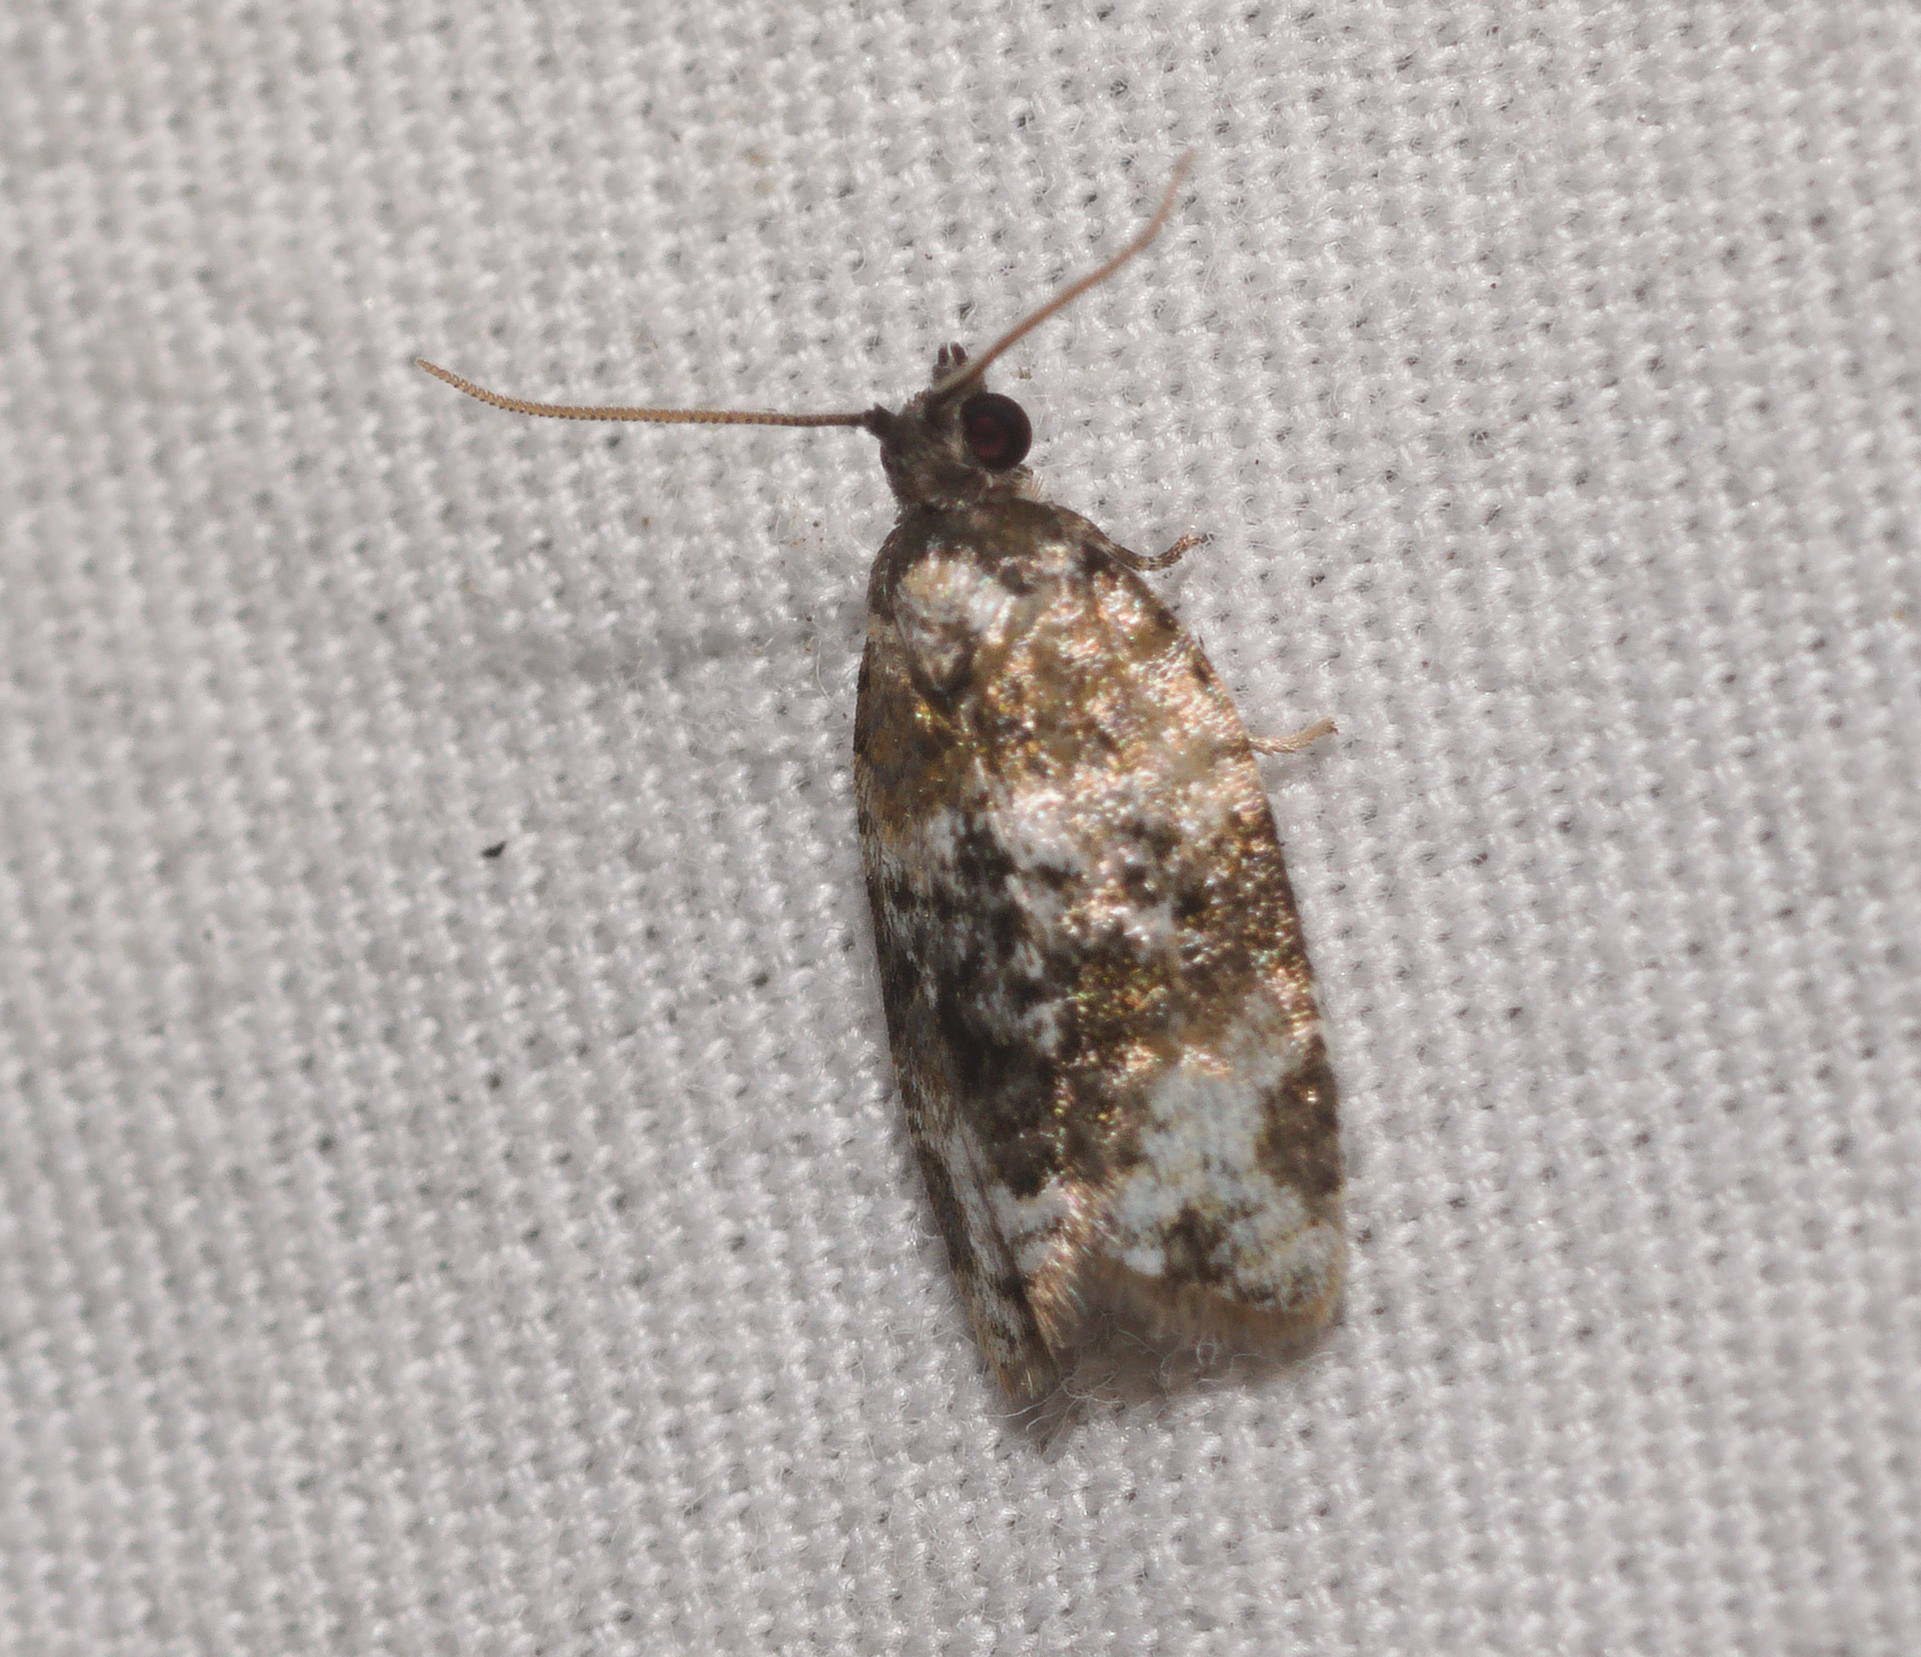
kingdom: Animalia
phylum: Arthropoda
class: Insecta
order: Lepidoptera
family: Tortricidae
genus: Spheterista
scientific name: Spheterista
